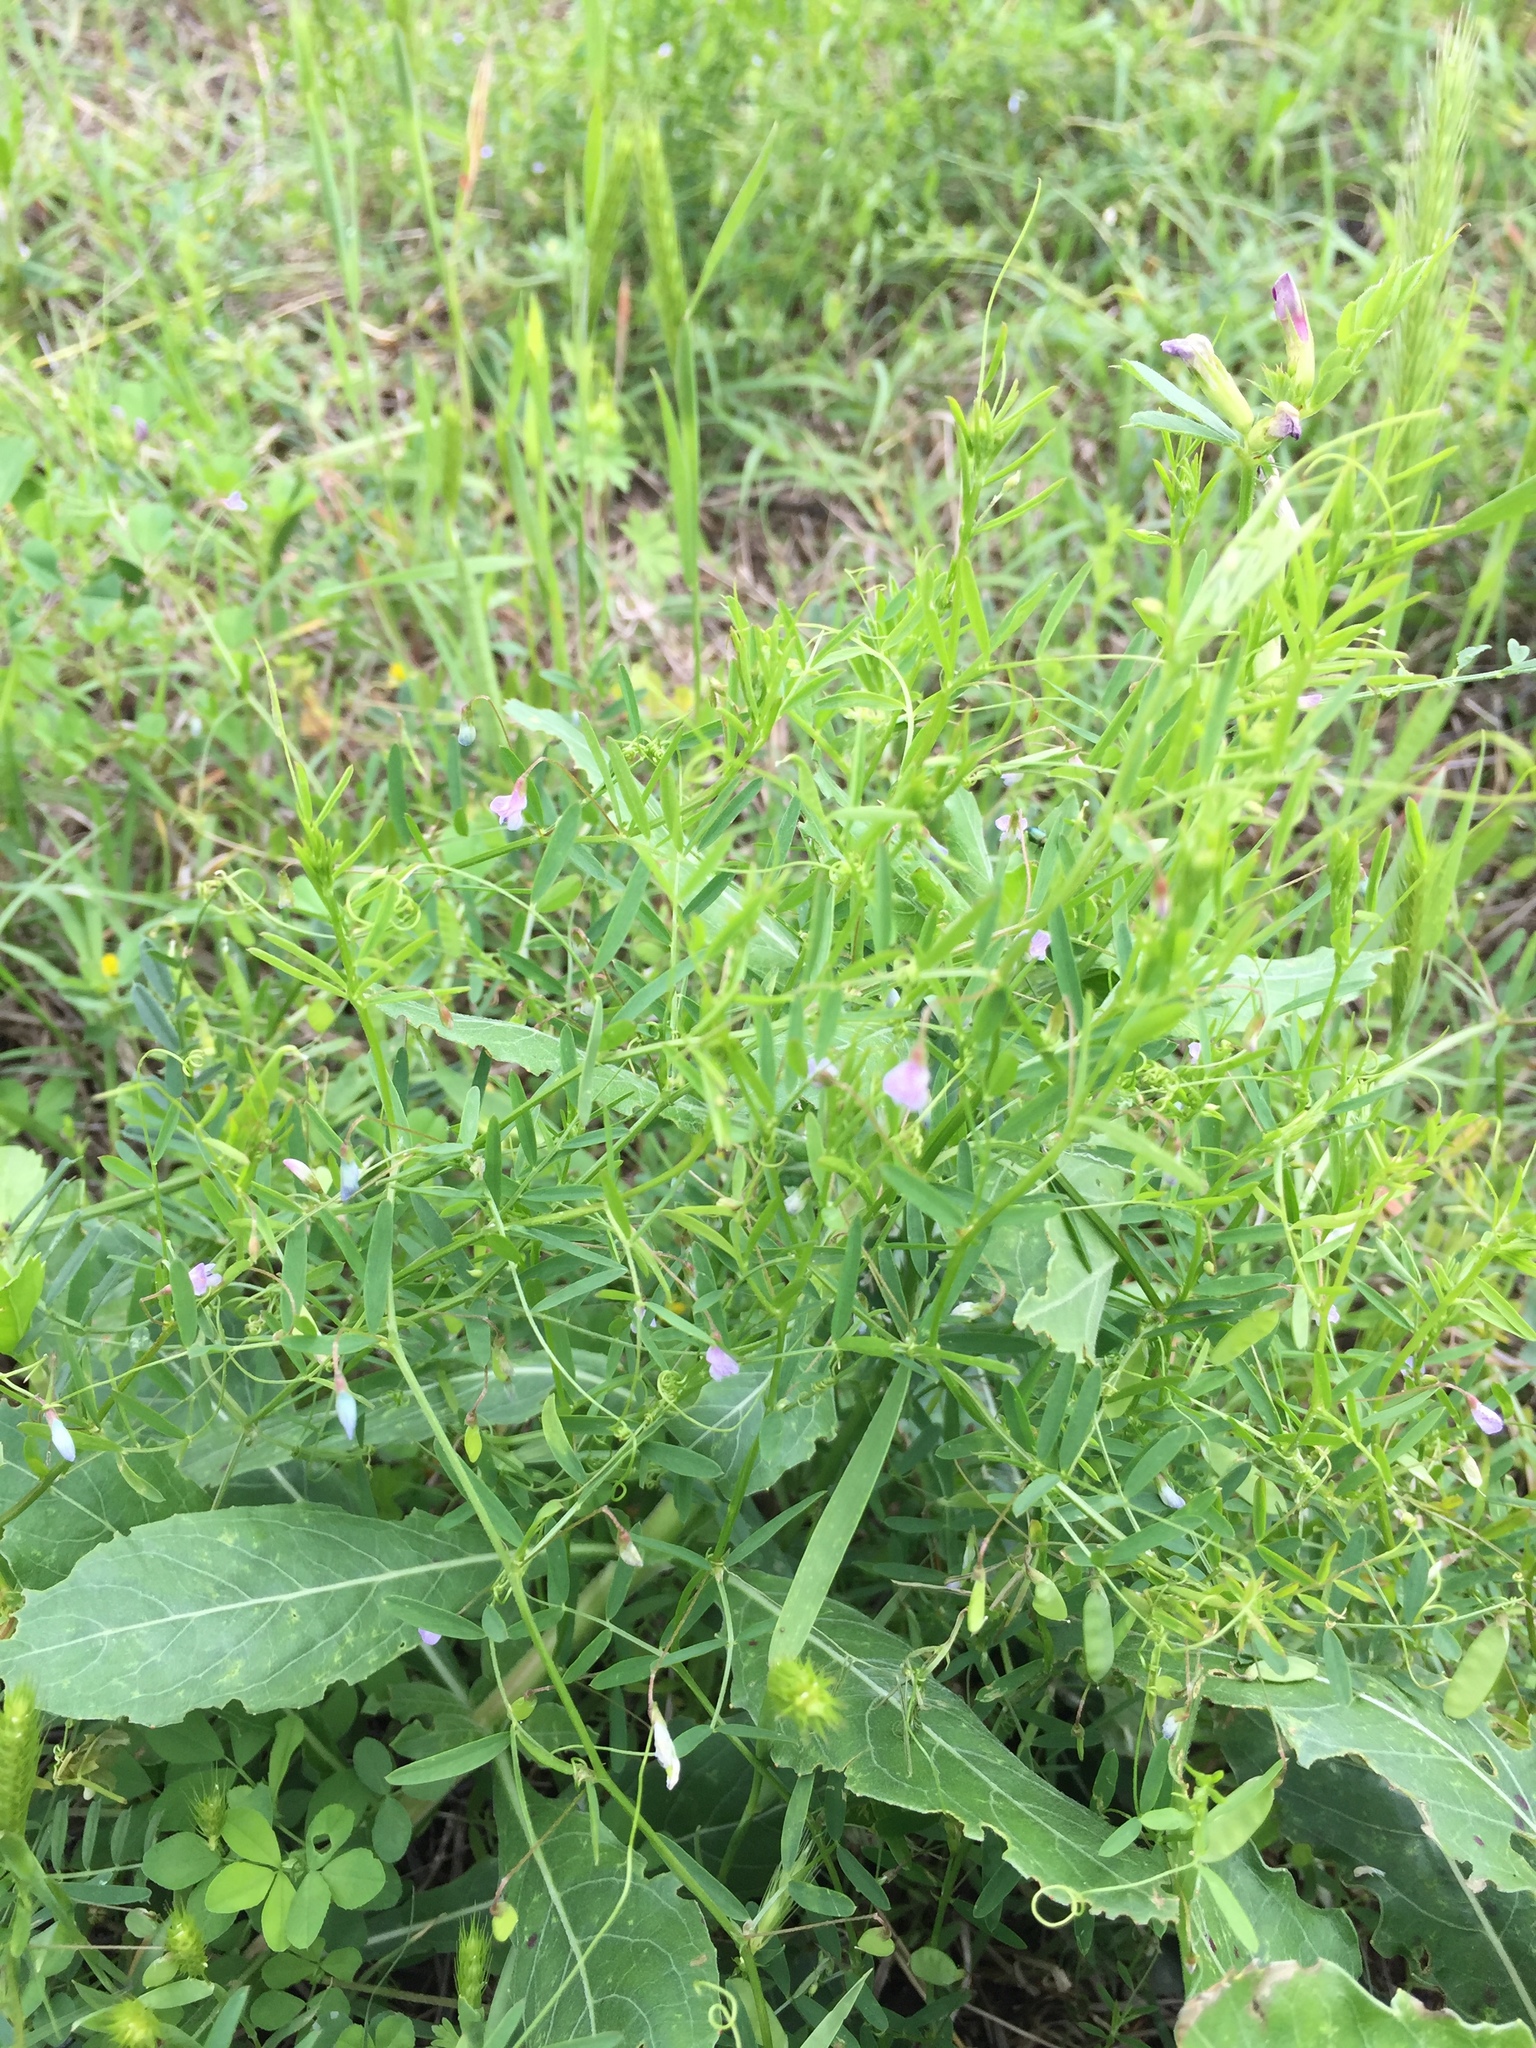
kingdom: Plantae
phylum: Tracheophyta
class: Magnoliopsida
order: Fabales
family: Fabaceae
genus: Vicia
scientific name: Vicia tetrasperma
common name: Smooth tare
